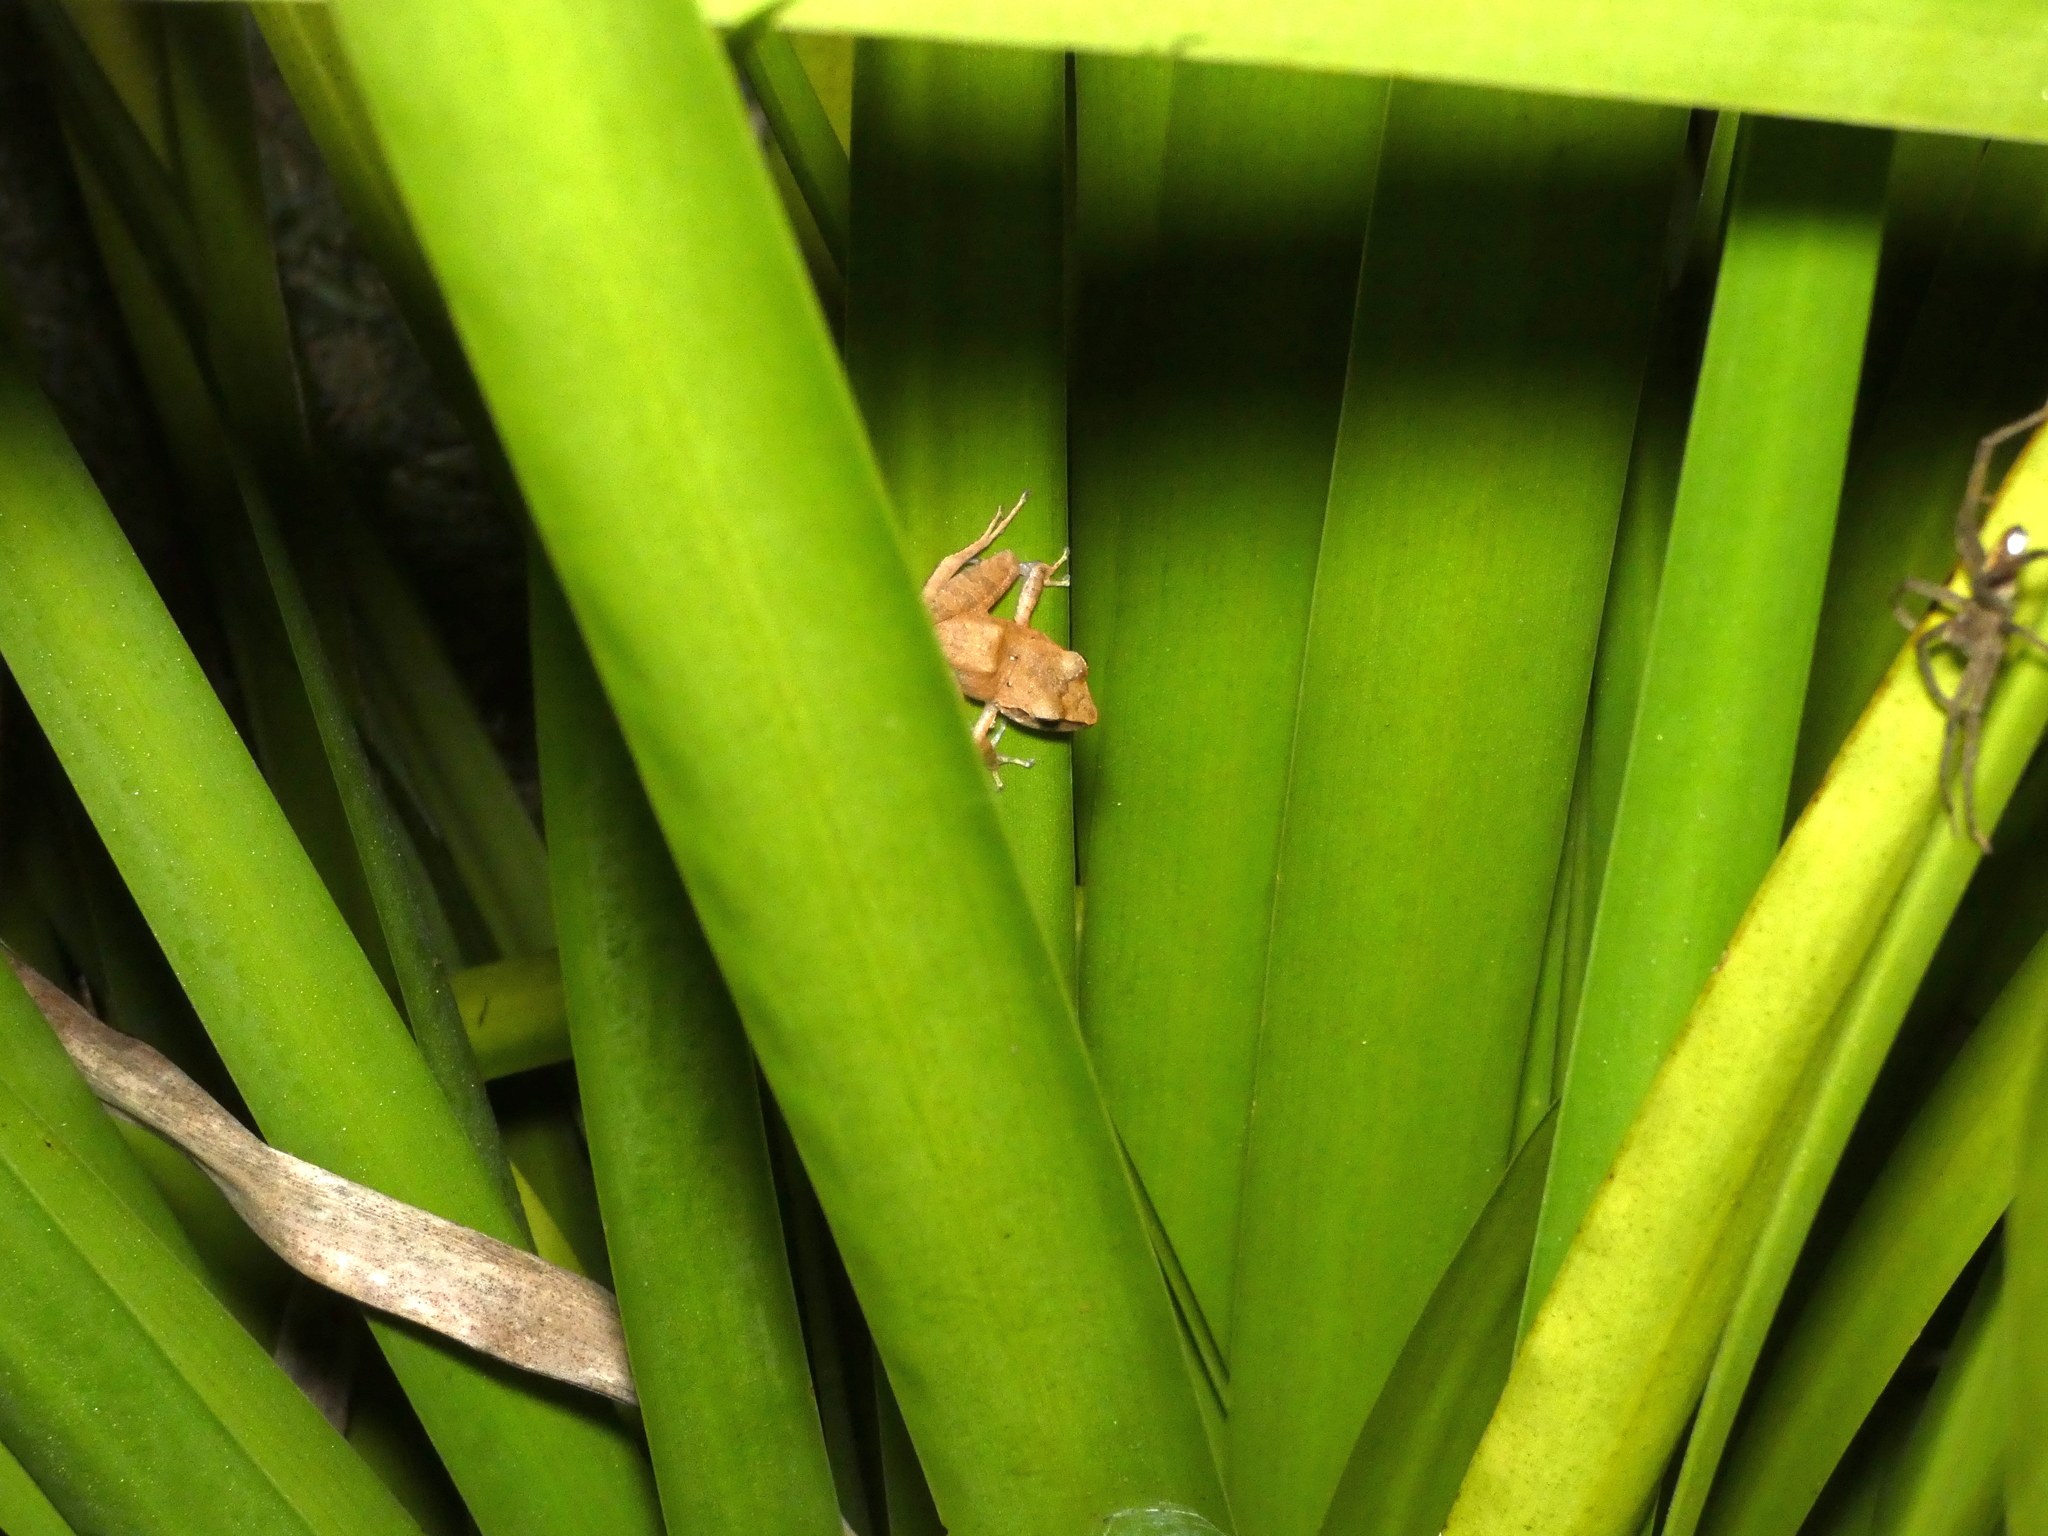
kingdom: Animalia
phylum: Chordata
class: Amphibia
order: Anura
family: Craugastoridae
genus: Pristimantis
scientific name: Pristimantis ramagii
